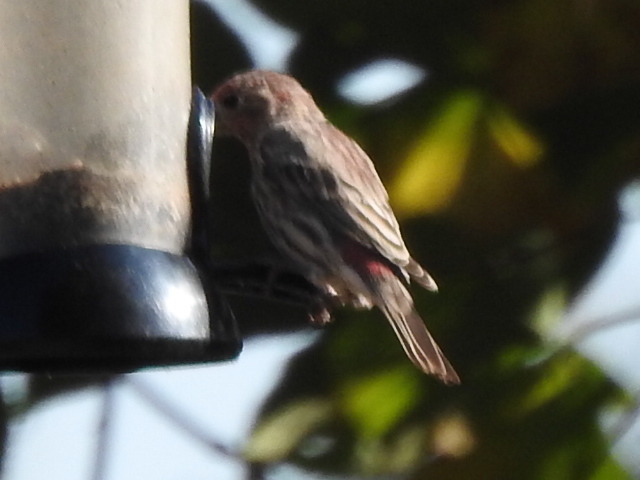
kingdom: Animalia
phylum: Chordata
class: Aves
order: Passeriformes
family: Fringillidae
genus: Haemorhous
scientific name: Haemorhous mexicanus
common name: House finch
